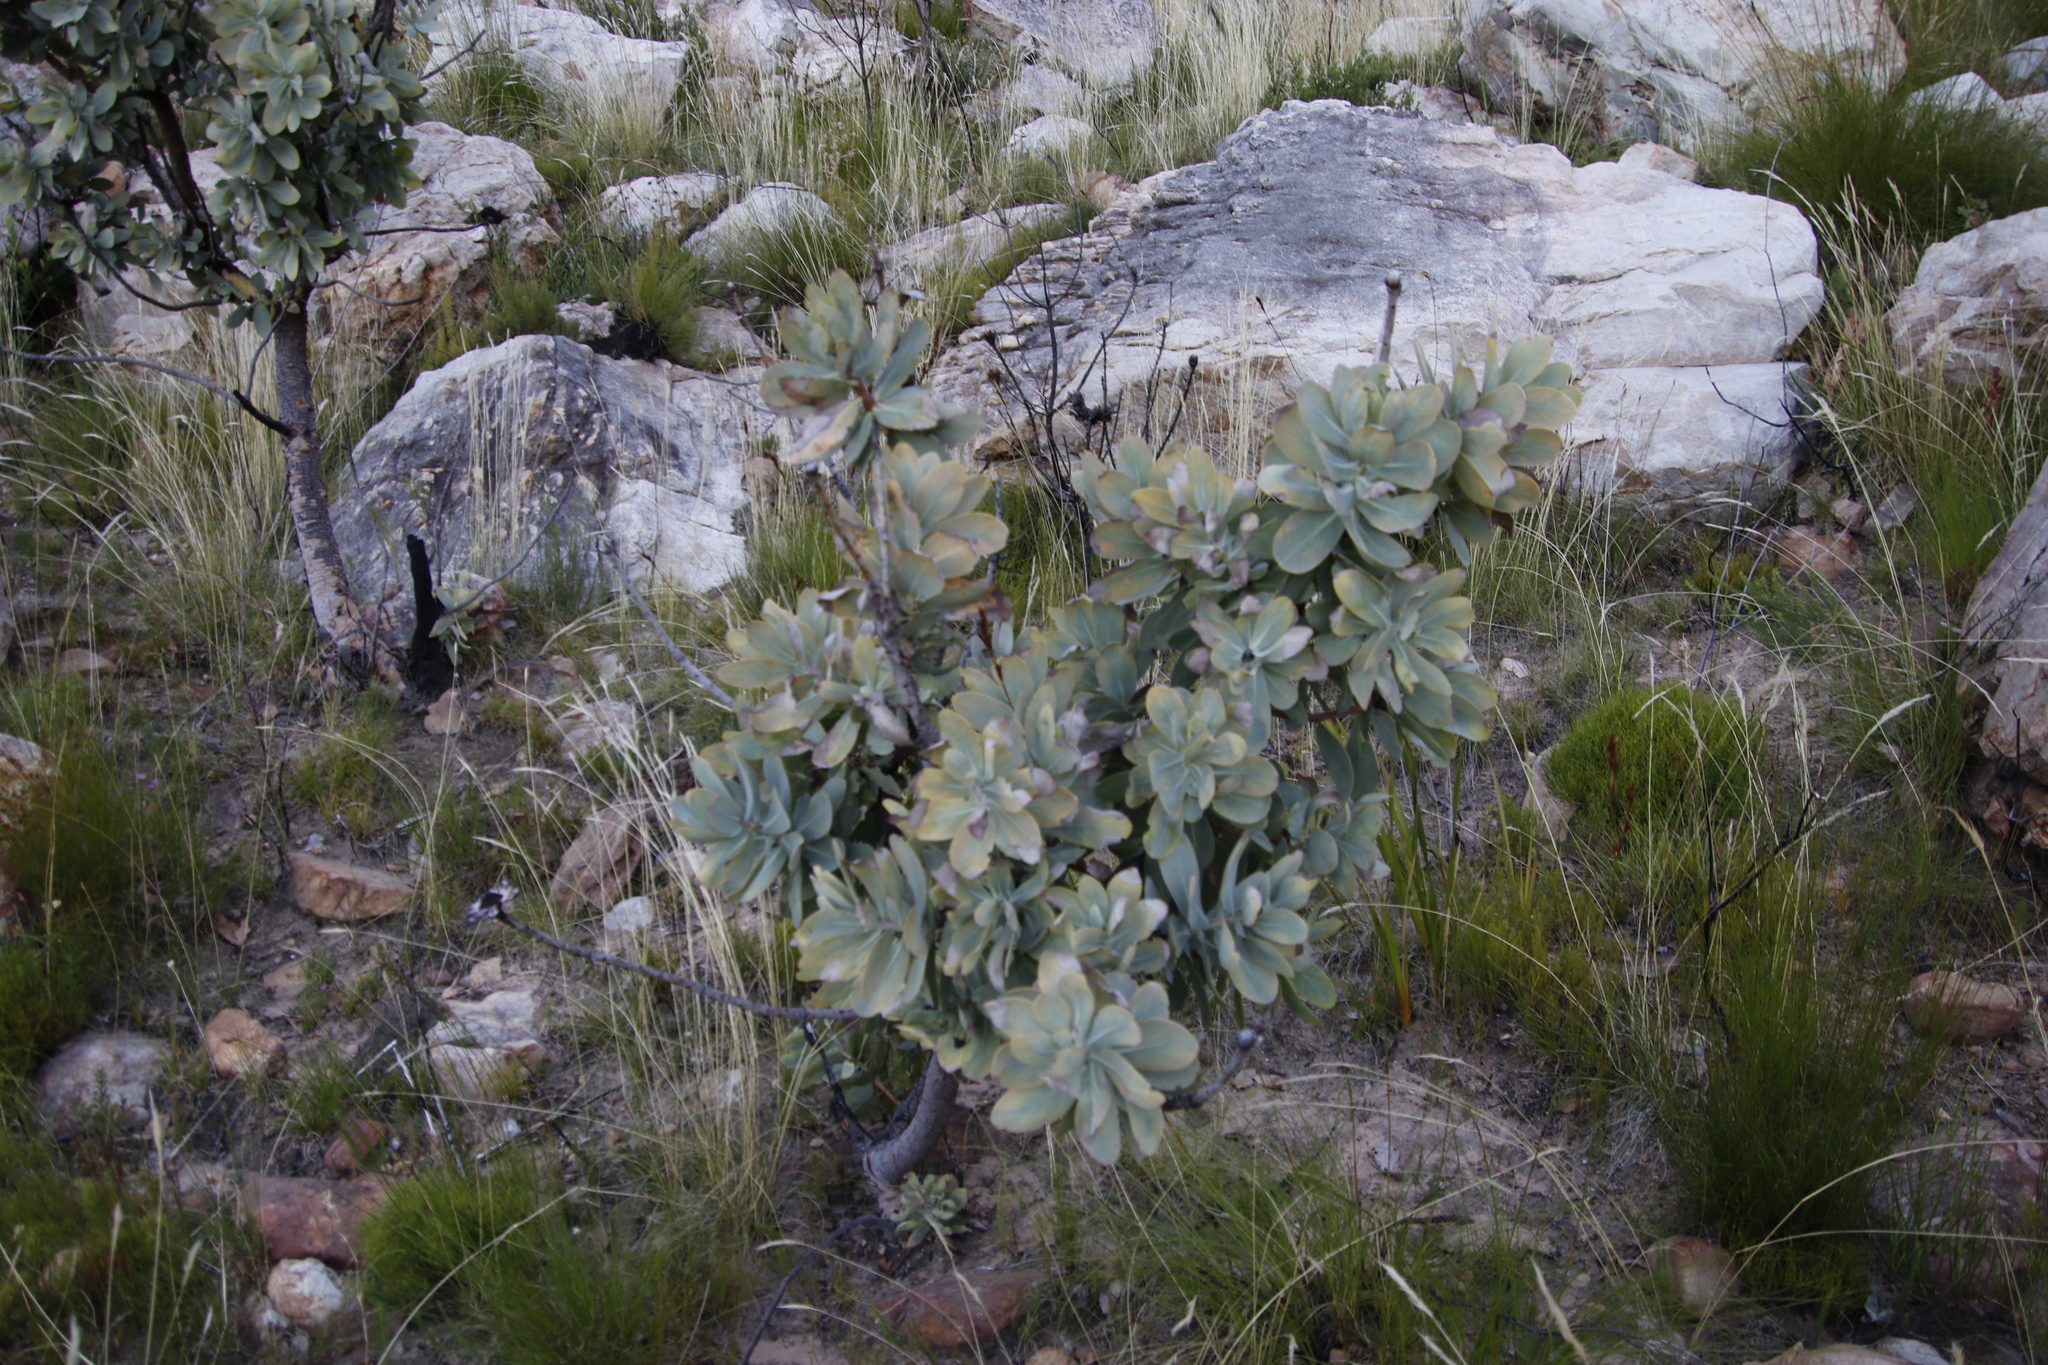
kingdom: Plantae
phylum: Tracheophyta
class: Magnoliopsida
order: Proteales
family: Proteaceae
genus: Protea
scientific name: Protea nitida
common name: Tree protea
